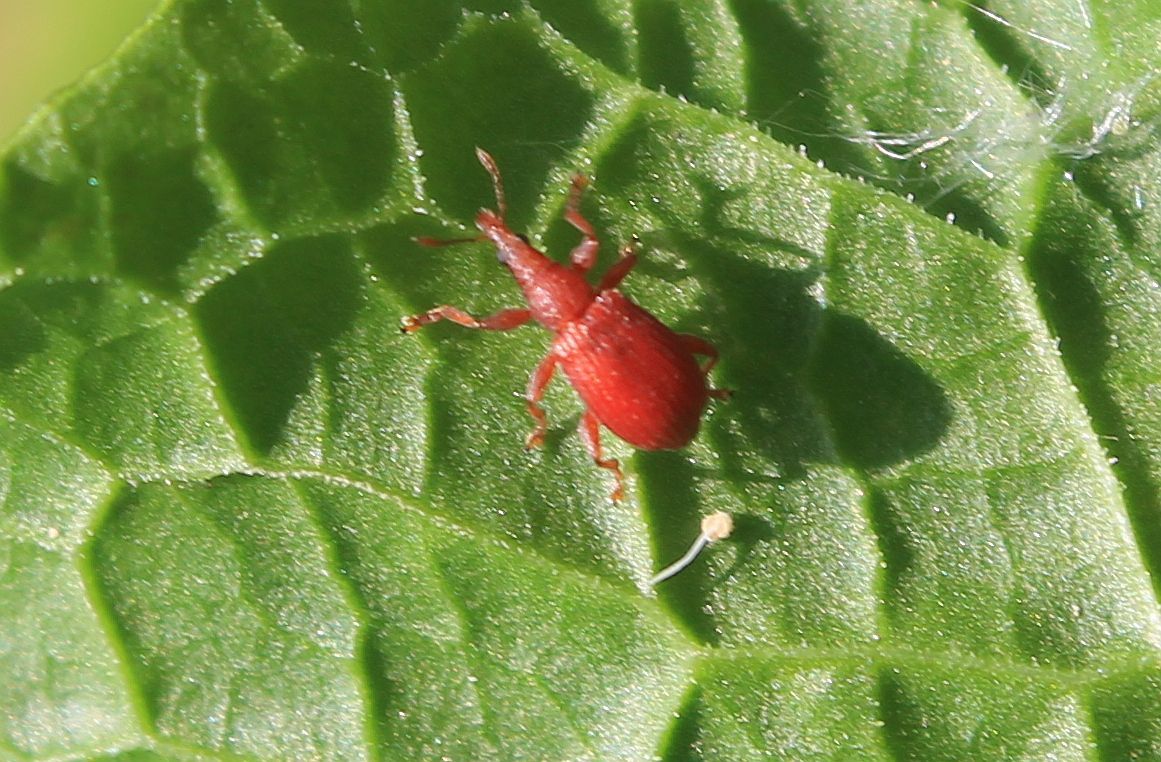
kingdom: Animalia
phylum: Arthropoda
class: Insecta
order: Coleoptera
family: Apionidae
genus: Apion
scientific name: Apion frumentarium
